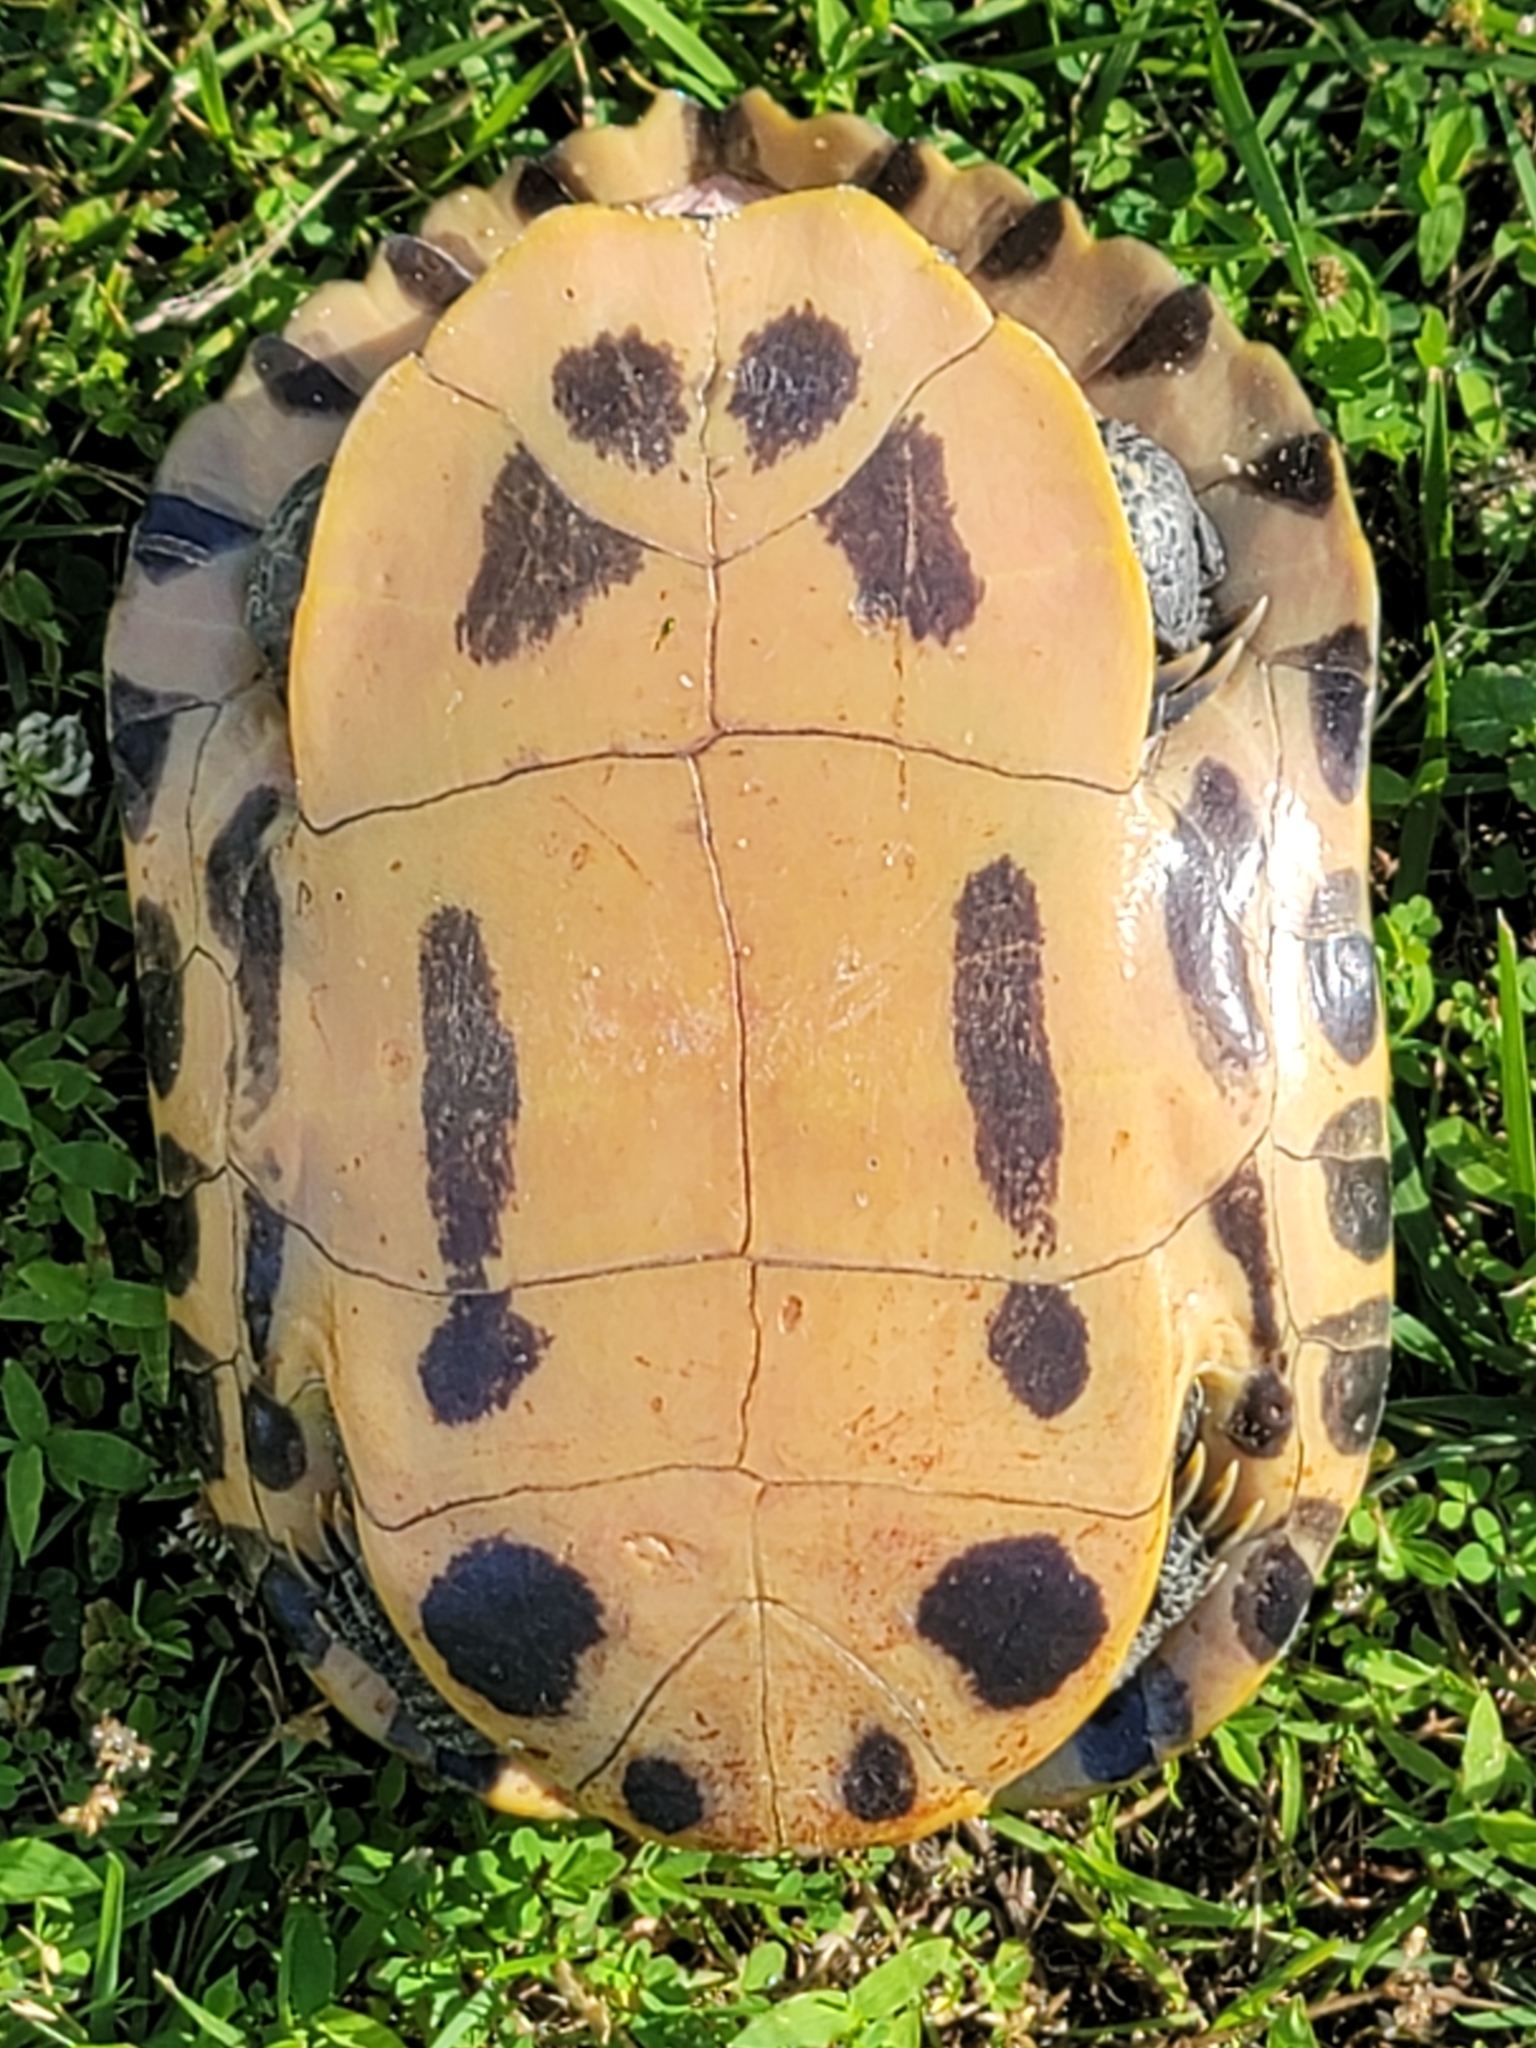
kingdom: Animalia
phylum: Chordata
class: Testudines
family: Emydidae
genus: Trachemys
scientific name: Trachemys scripta
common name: Slider
